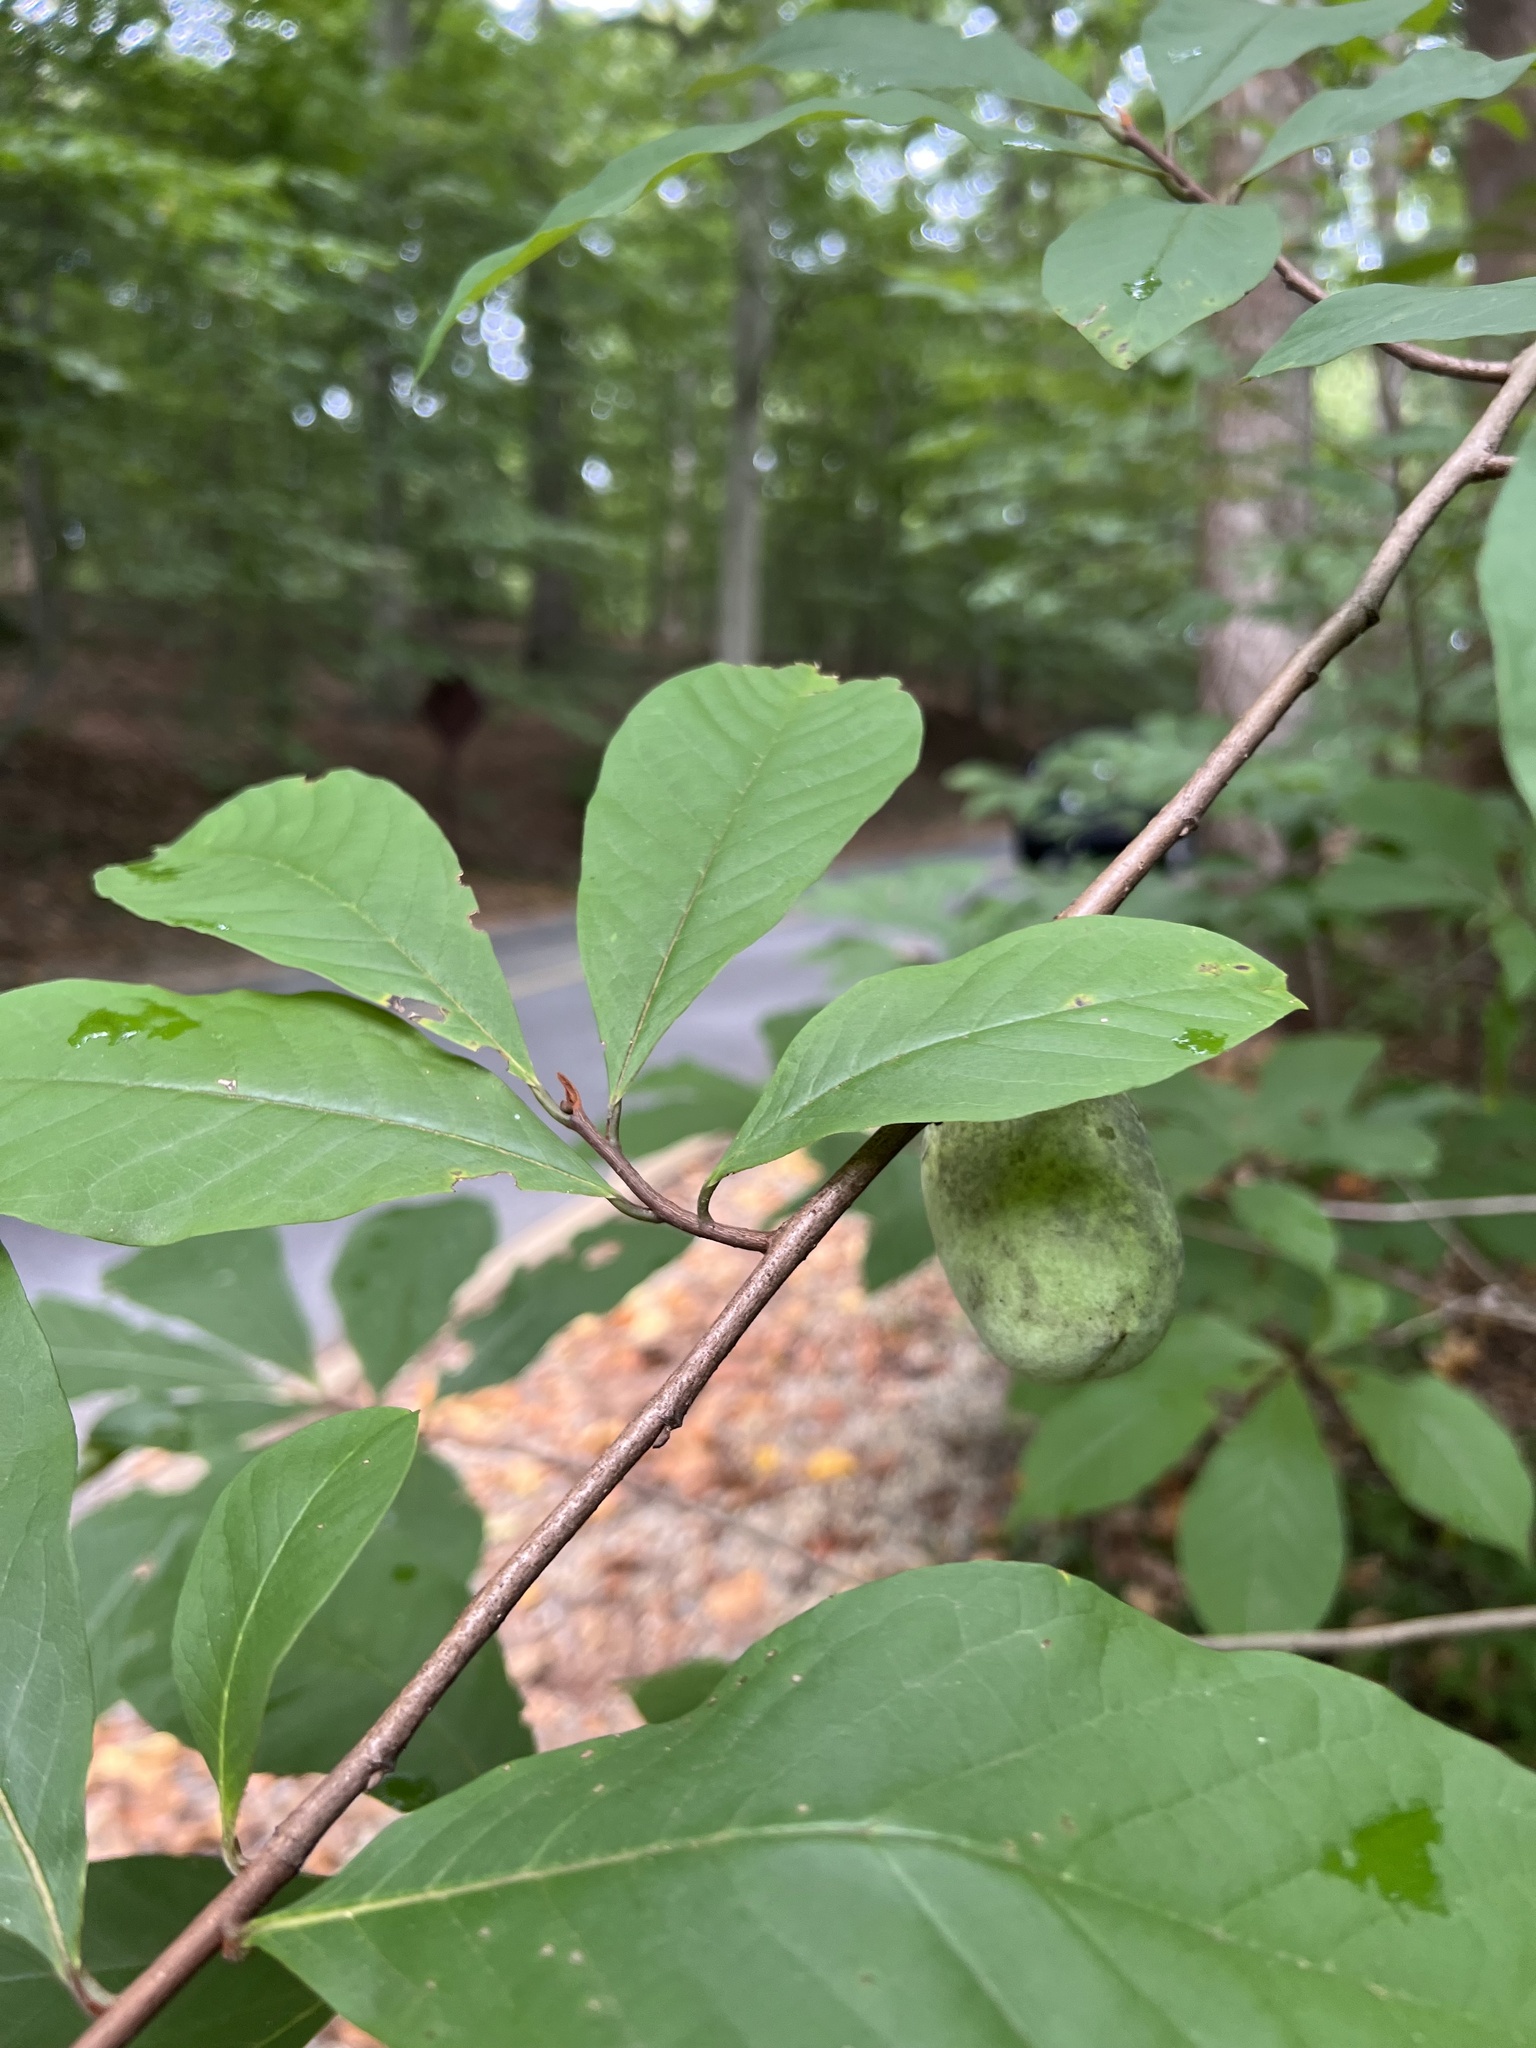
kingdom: Plantae
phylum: Tracheophyta
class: Magnoliopsida
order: Magnoliales
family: Annonaceae
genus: Asimina
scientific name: Asimina triloba
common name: Dog-banana
